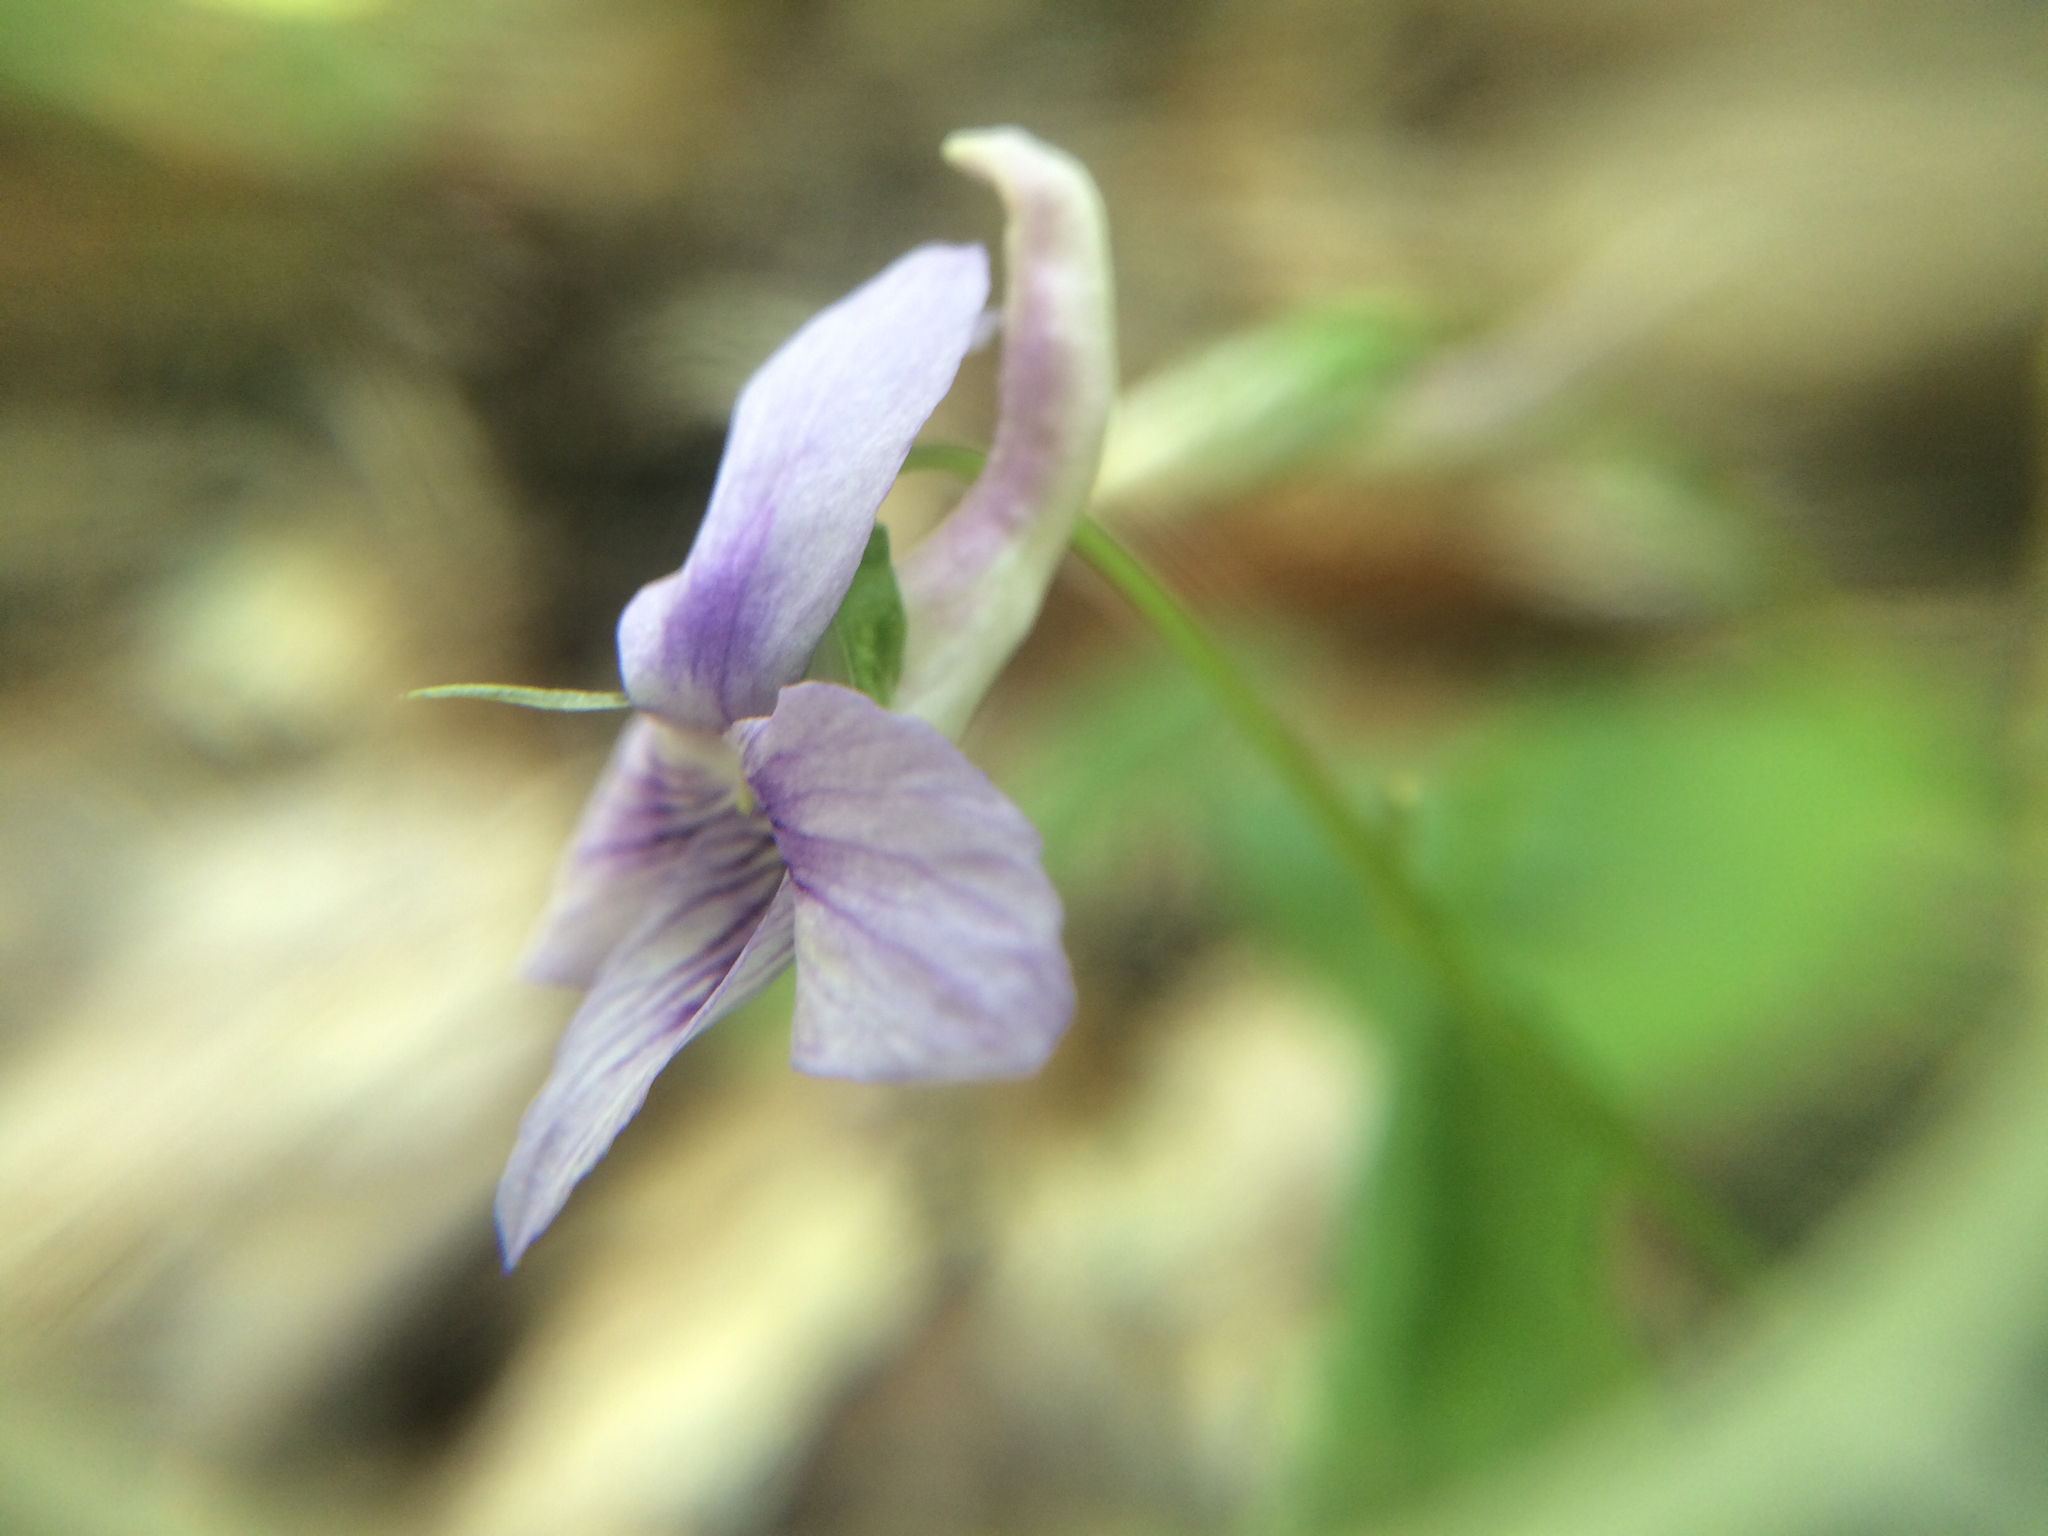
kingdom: Plantae
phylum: Tracheophyta
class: Magnoliopsida
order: Malpighiales
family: Violaceae
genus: Viola
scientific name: Viola rostrata
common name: Long-spur violet
